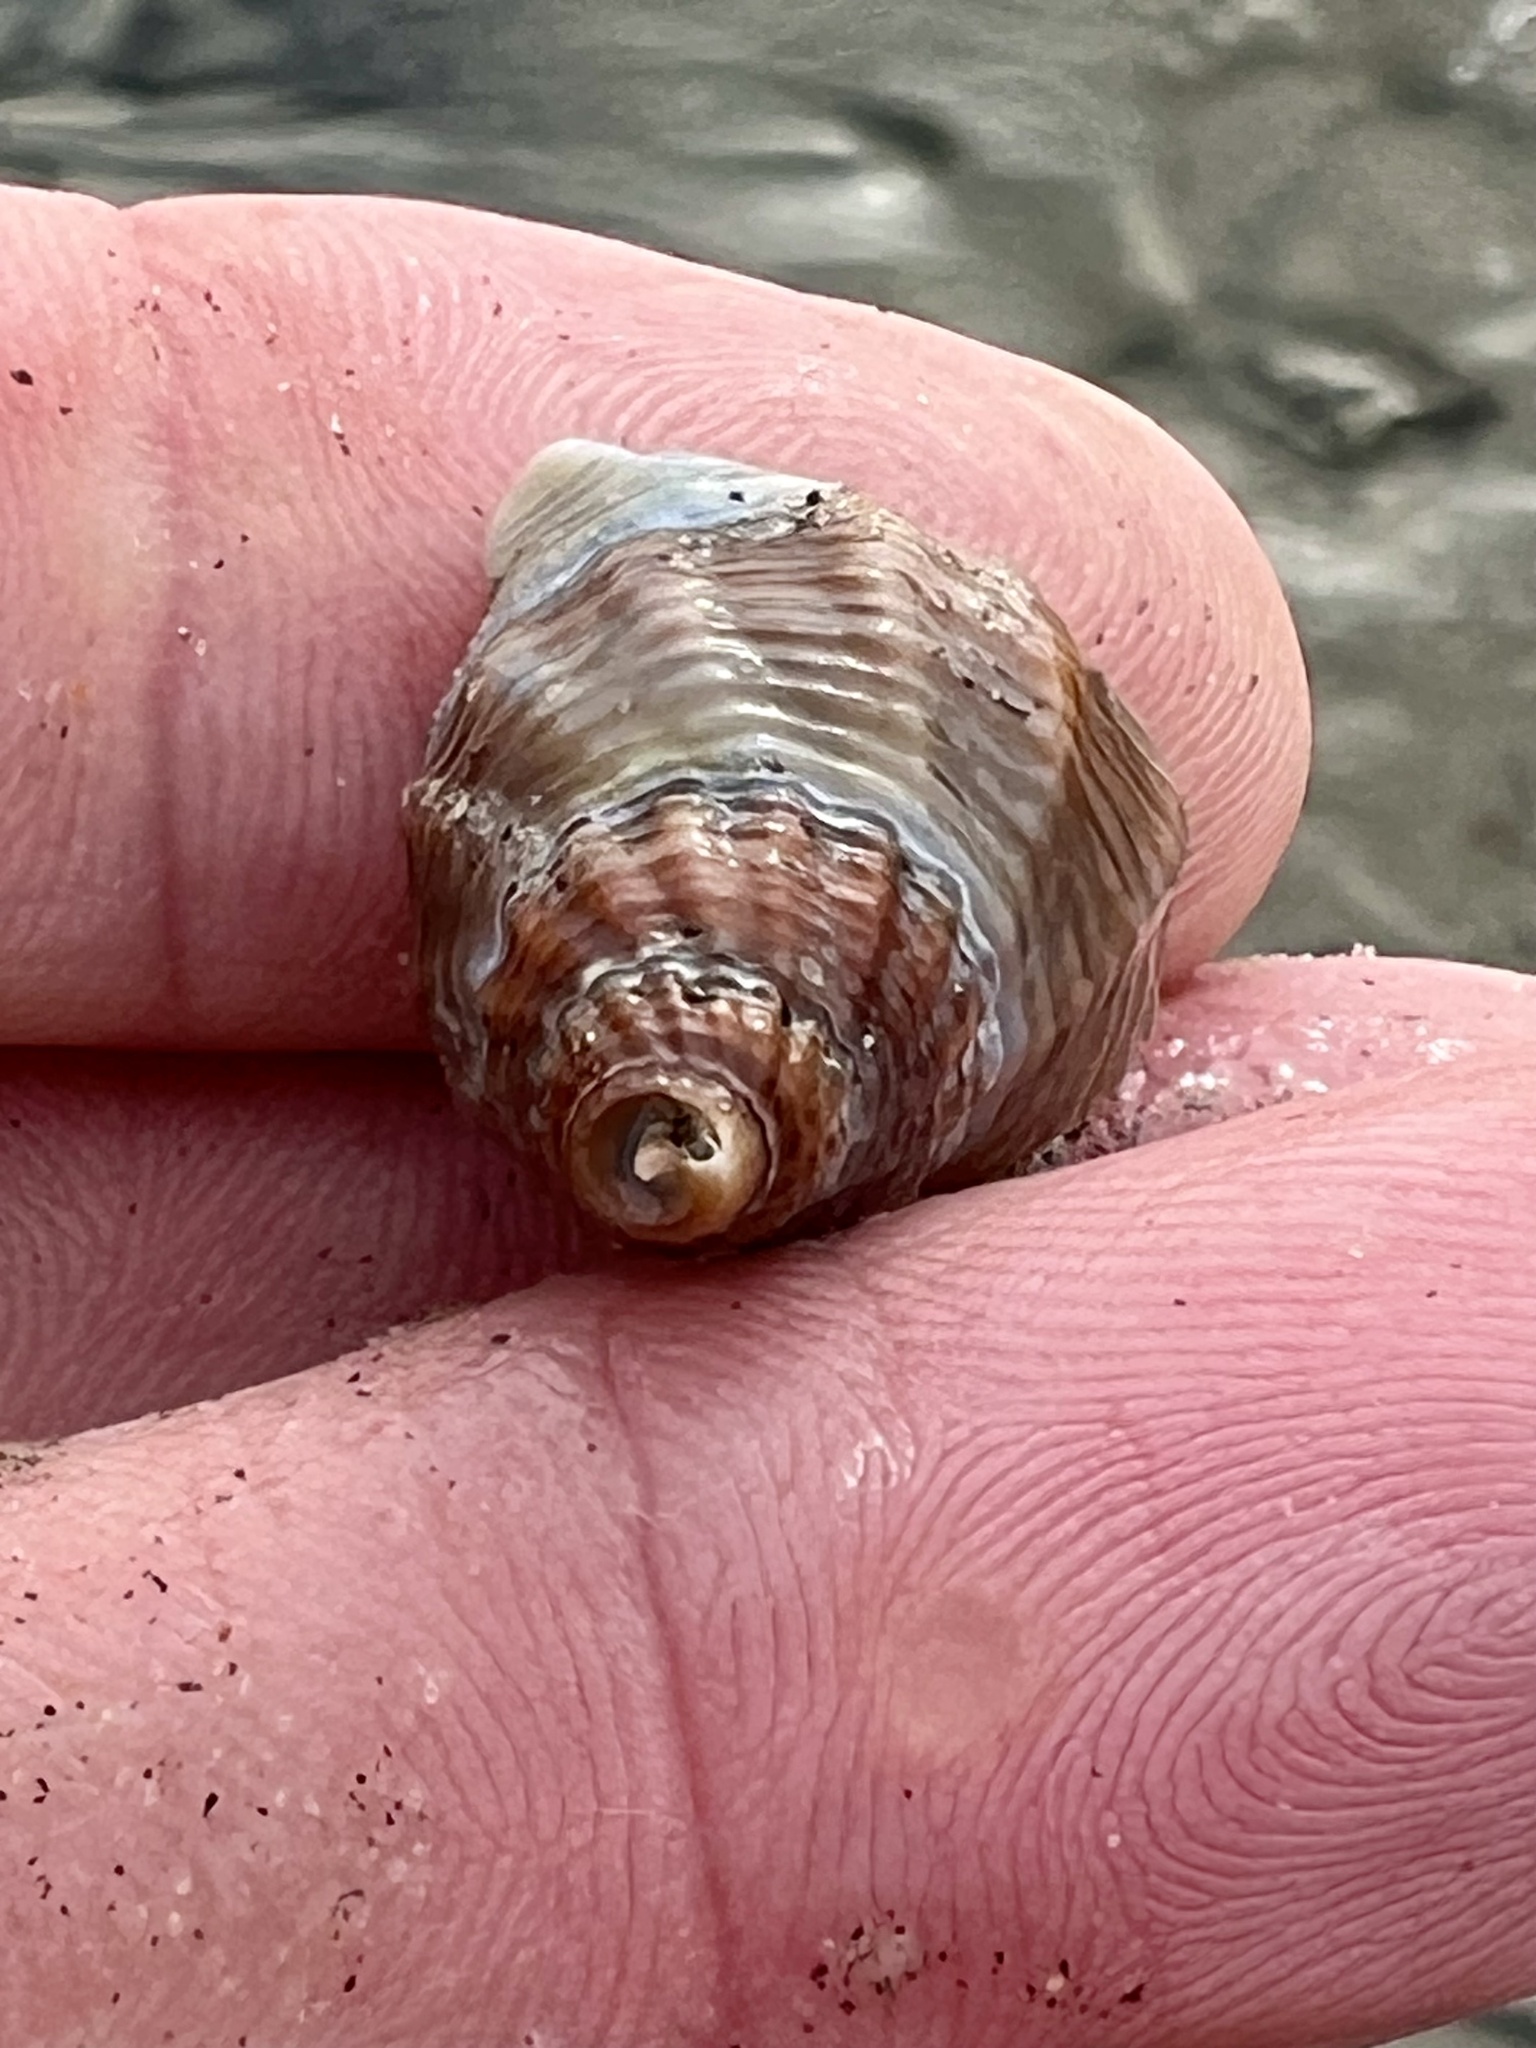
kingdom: Animalia
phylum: Mollusca
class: Gastropoda
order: Neogastropoda
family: Nassariidae
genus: Caesia
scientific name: Caesia fossata
